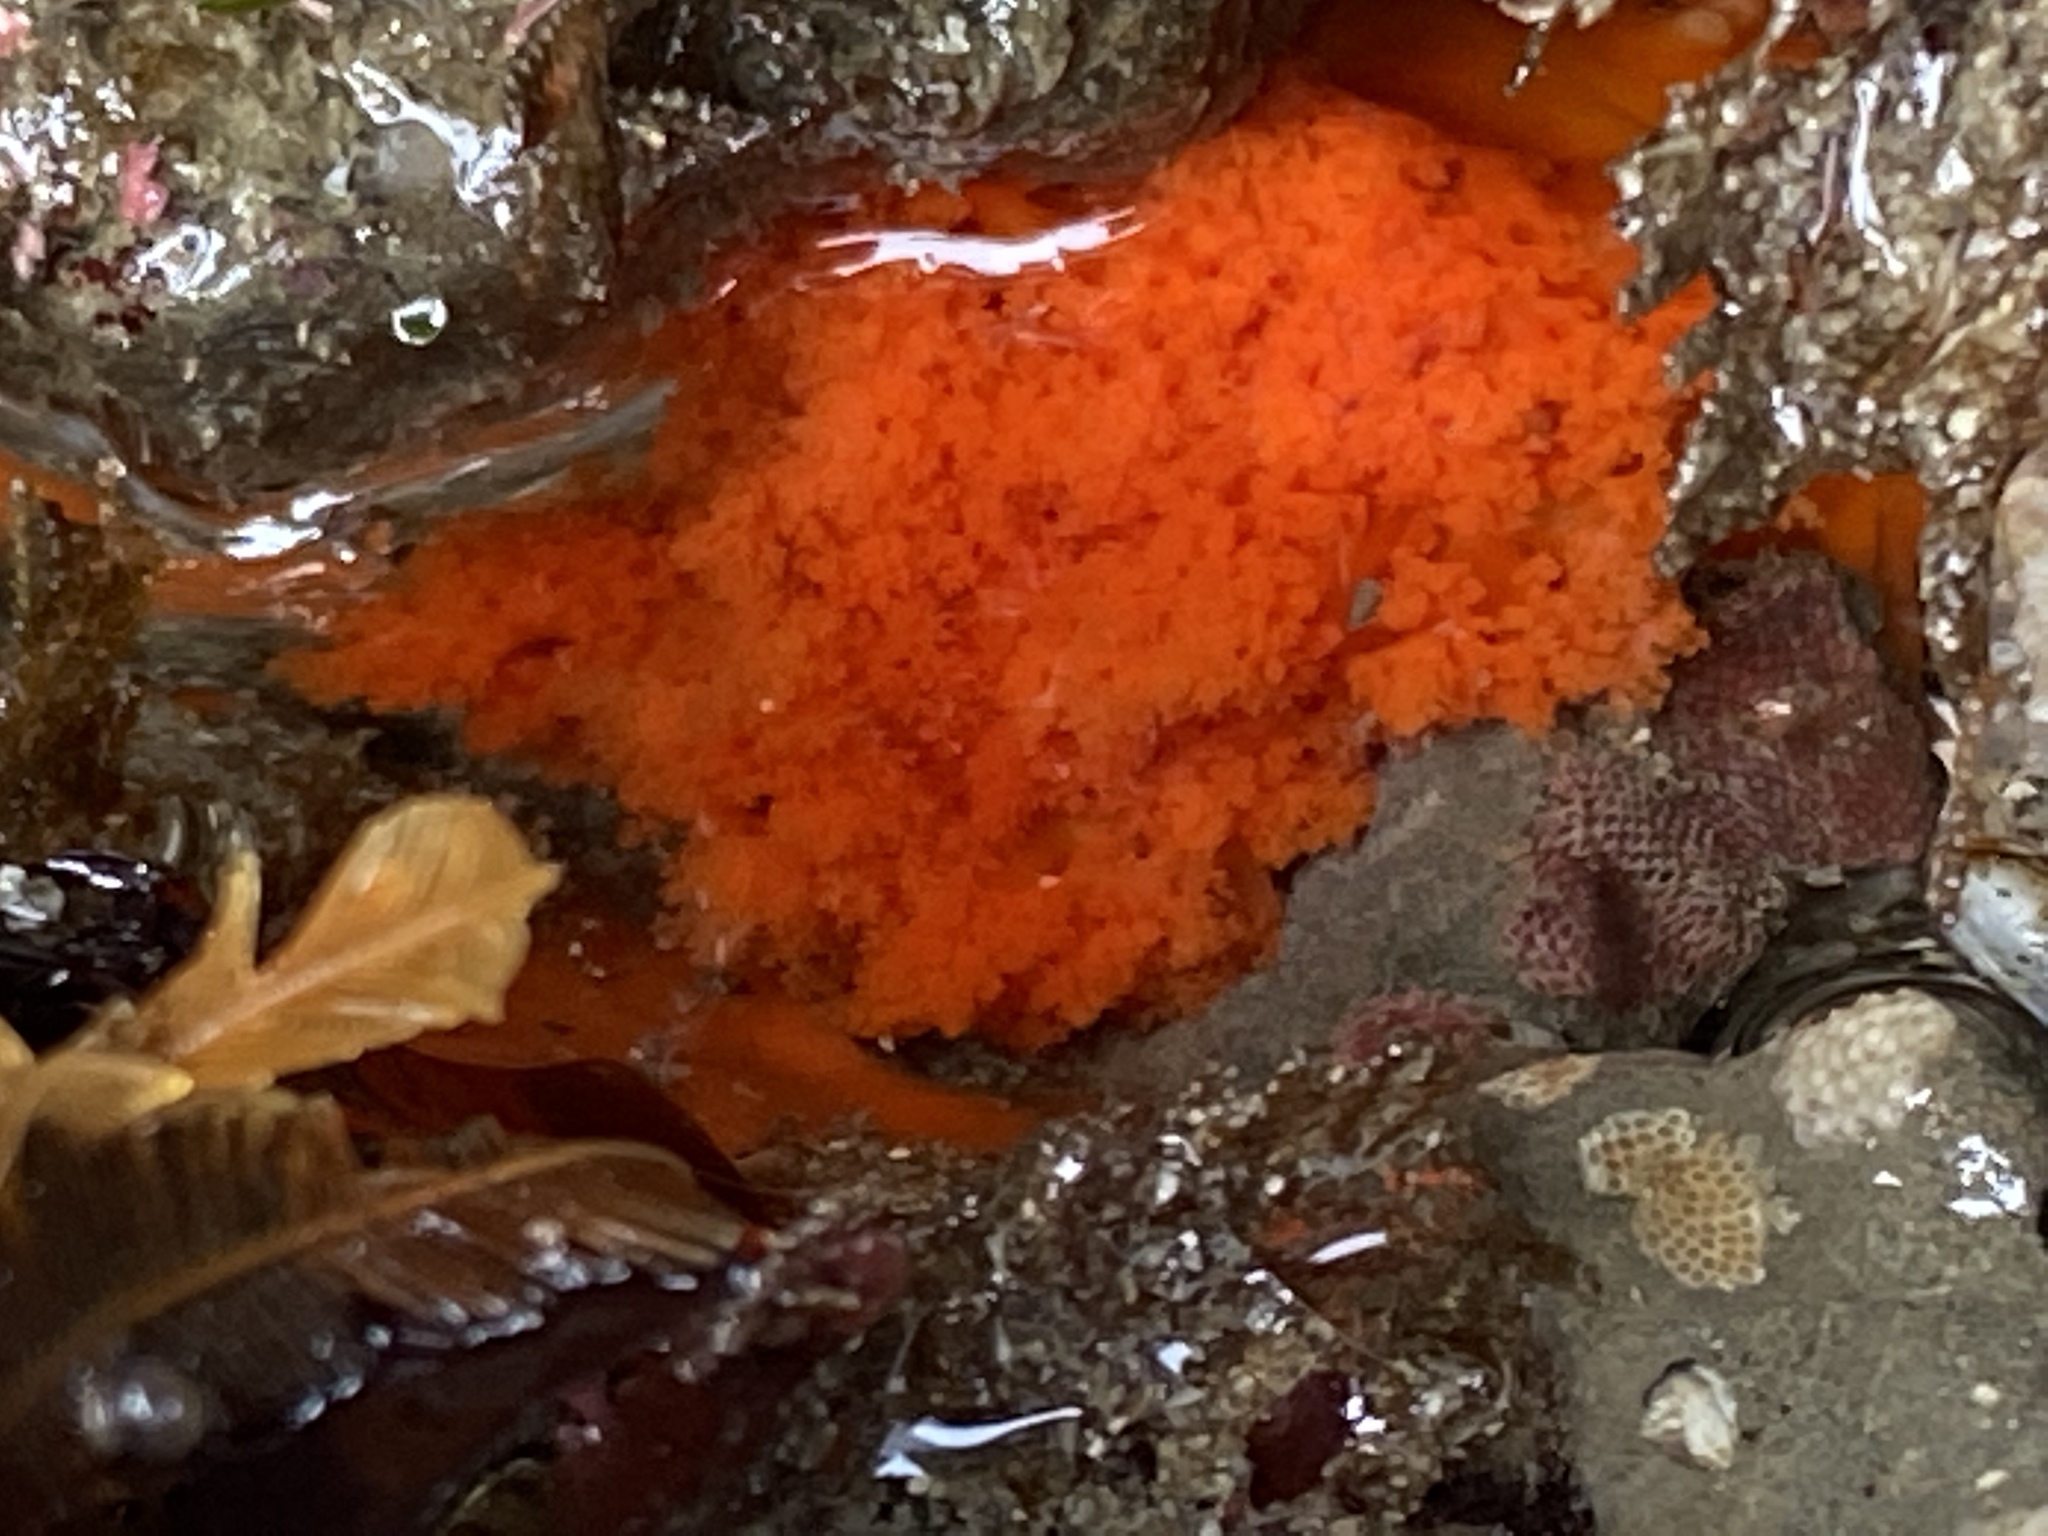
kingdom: Animalia
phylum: Echinodermata
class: Holothuroidea
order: Dendrochirotida
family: Cucumariidae
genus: Cucumaria
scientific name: Cucumaria miniata
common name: Orange sea cucumber
